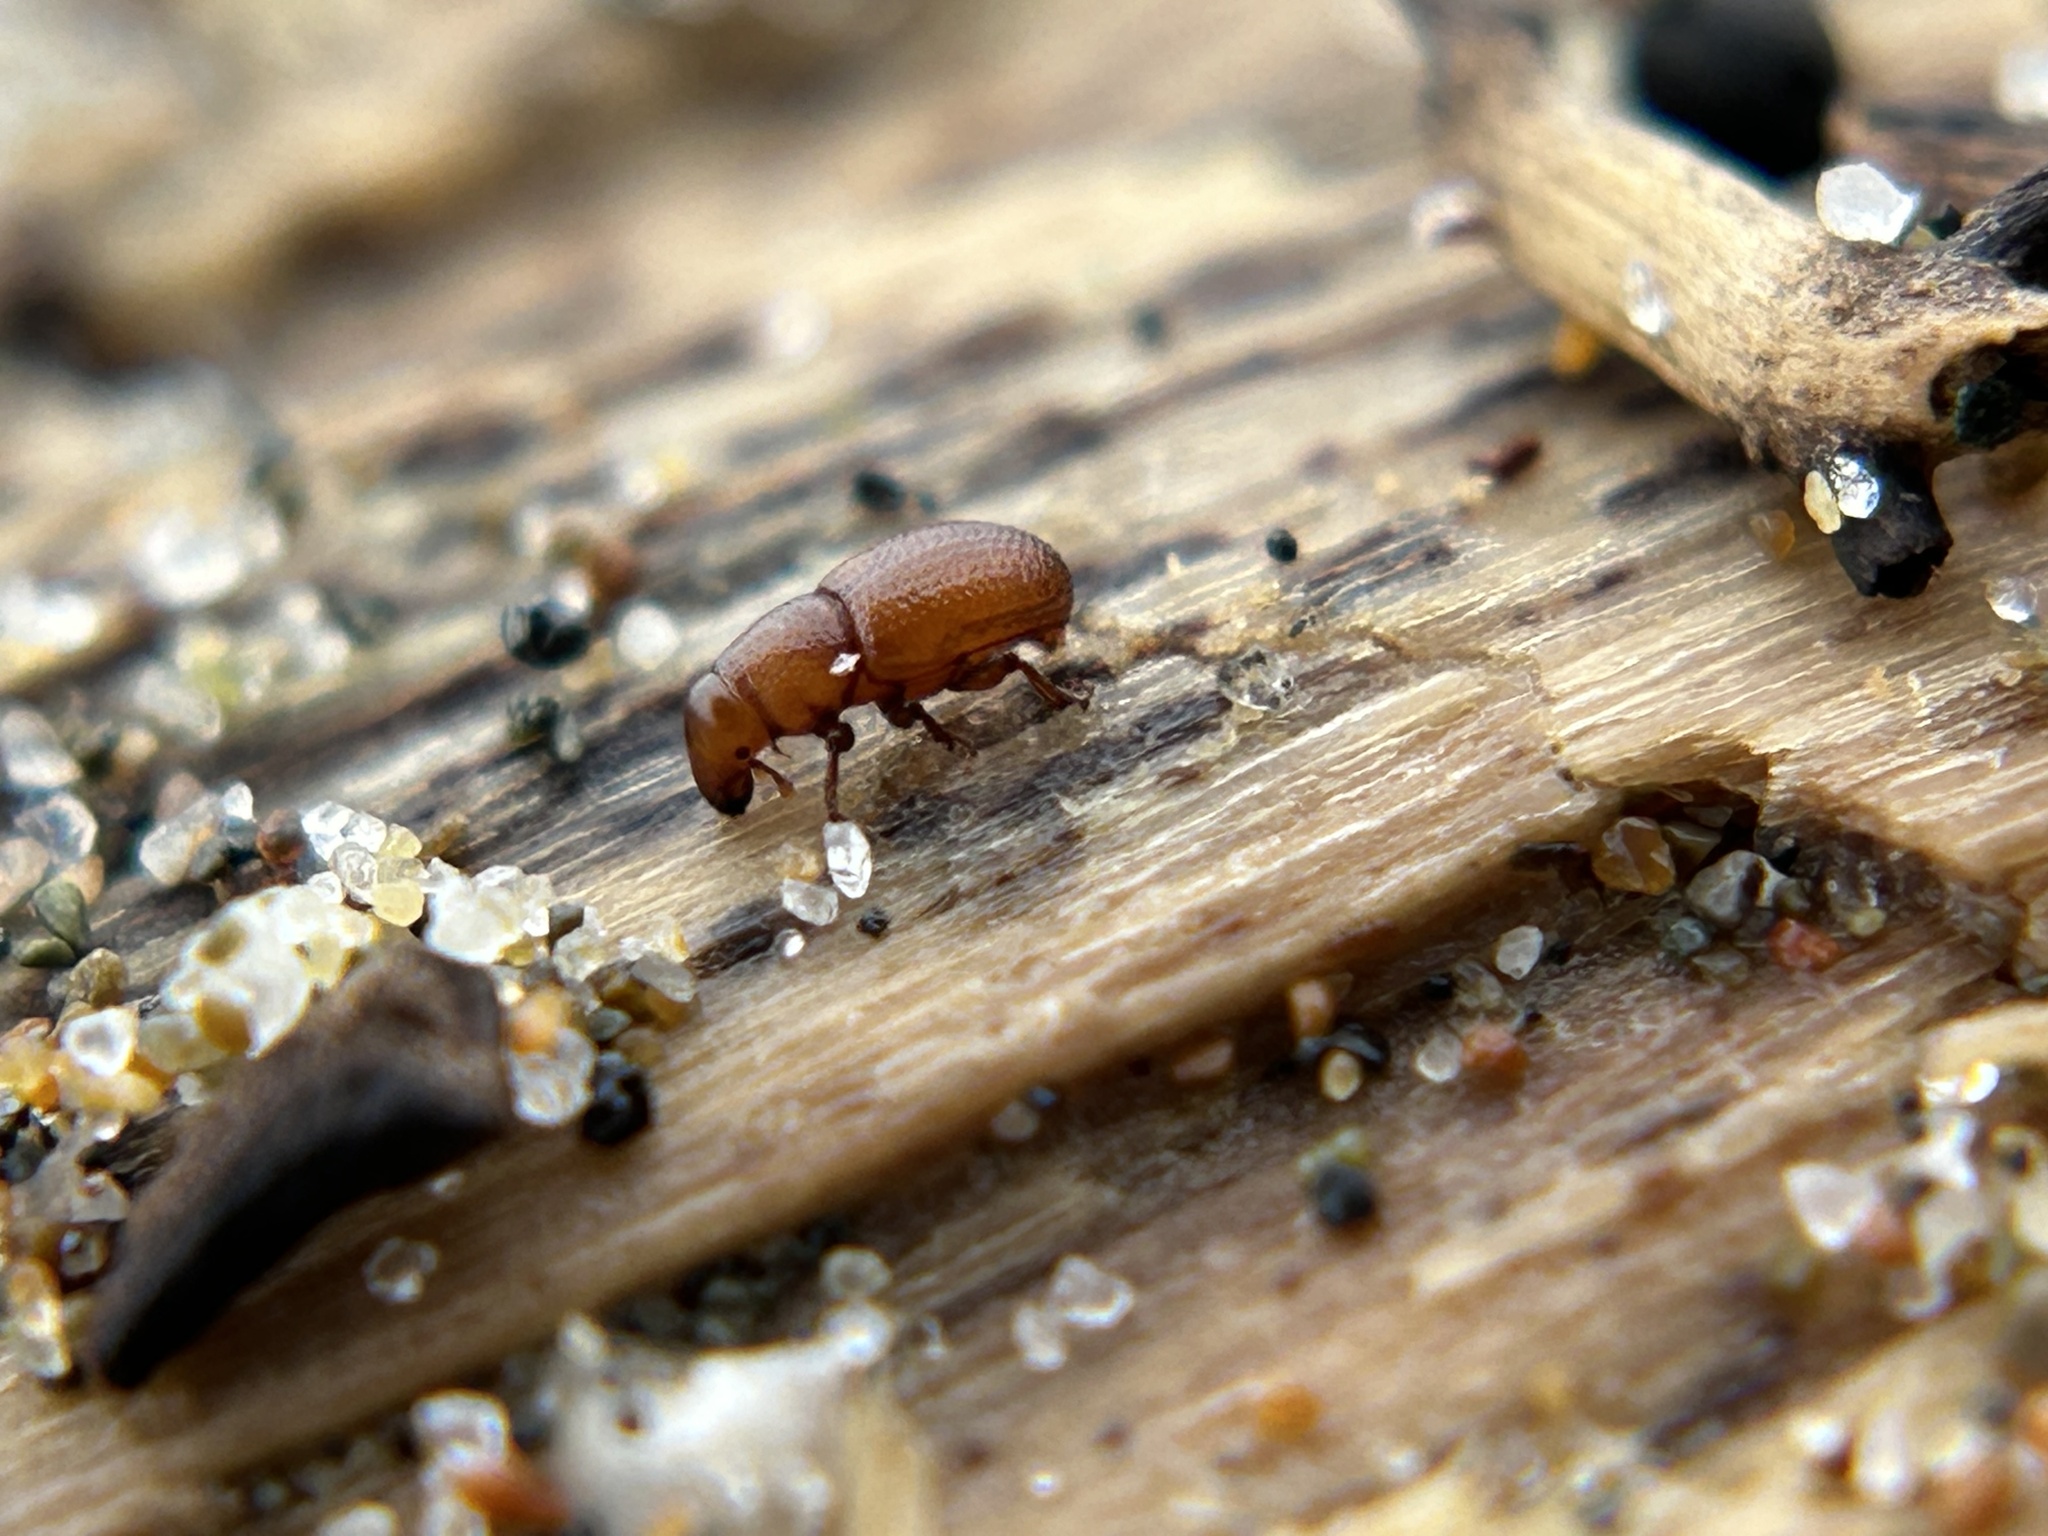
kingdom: Animalia
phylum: Arthropoda
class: Insecta
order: Coleoptera
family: Curculionidae
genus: Elassoptes
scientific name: Elassoptes marinus
